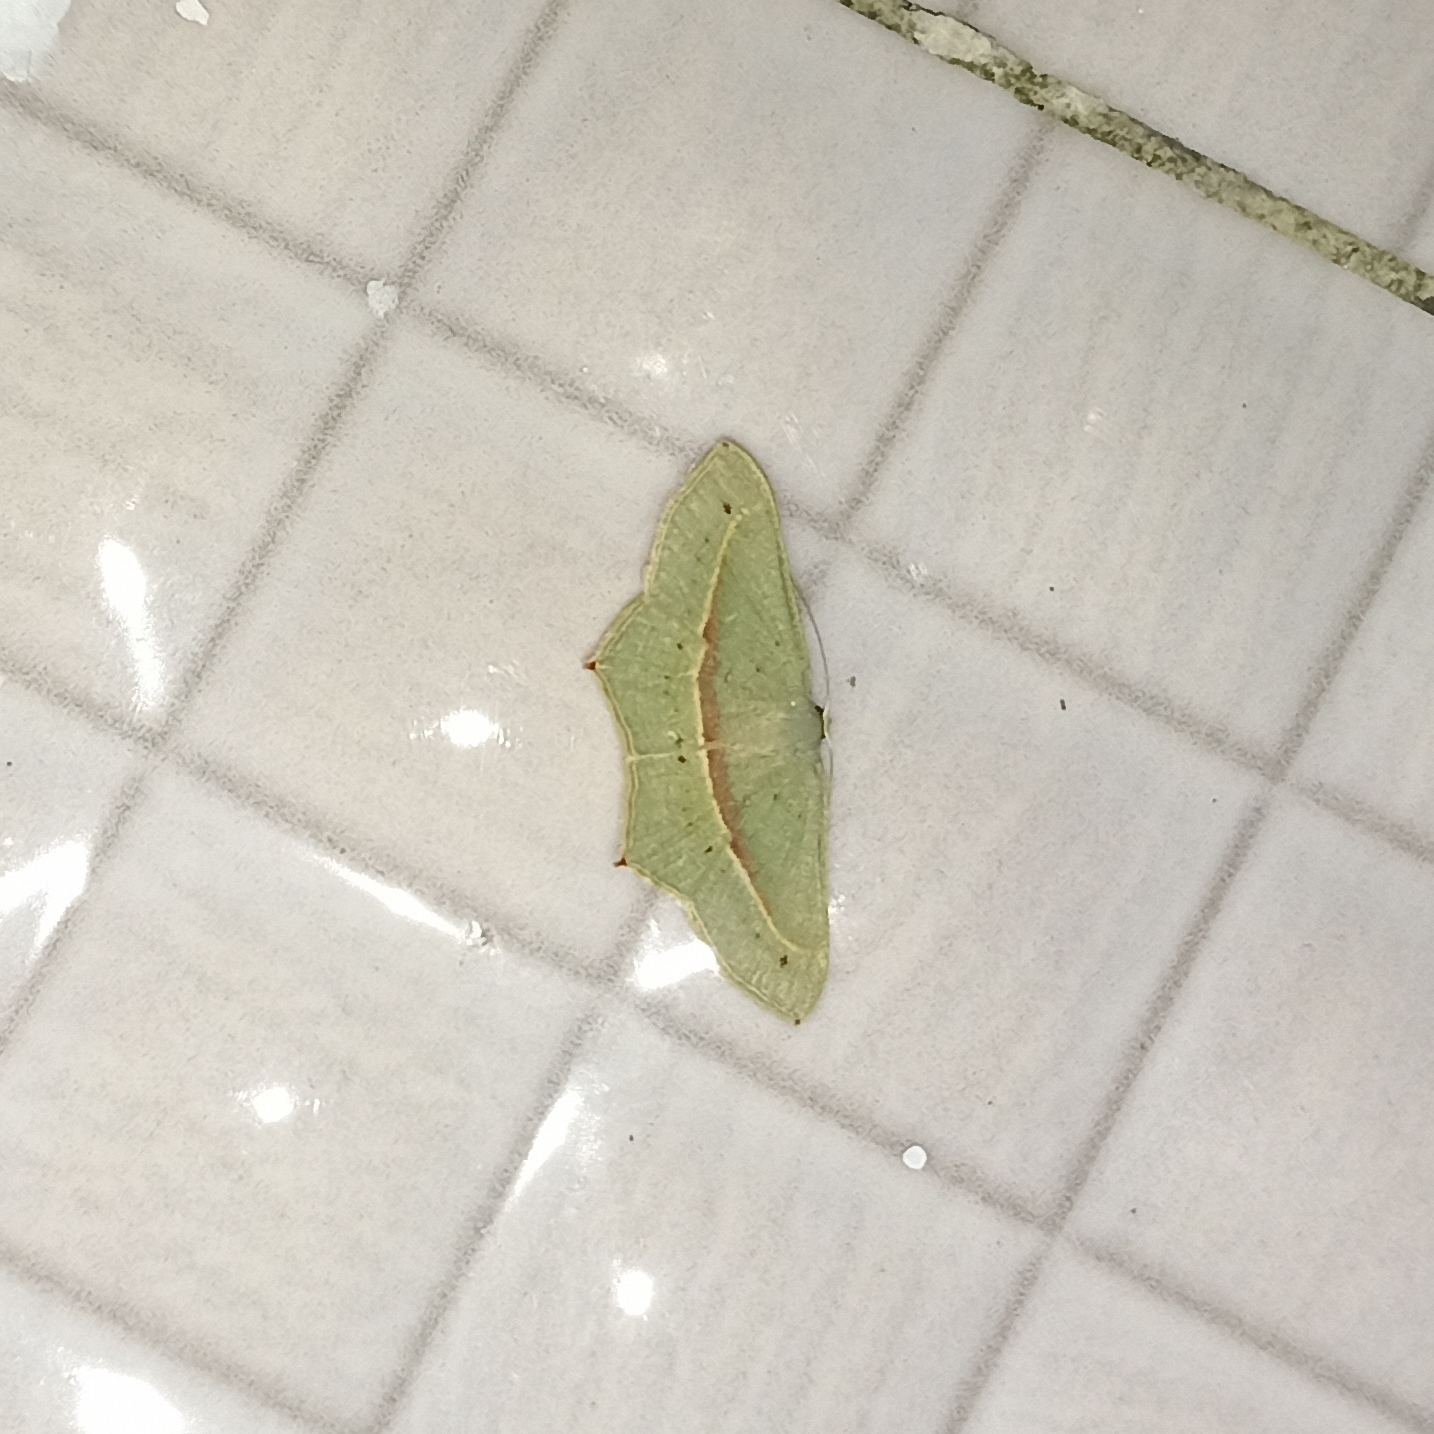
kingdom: Animalia
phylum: Arthropoda
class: Insecta
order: Lepidoptera
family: Geometridae
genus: Traminda
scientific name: Traminda mundissima
